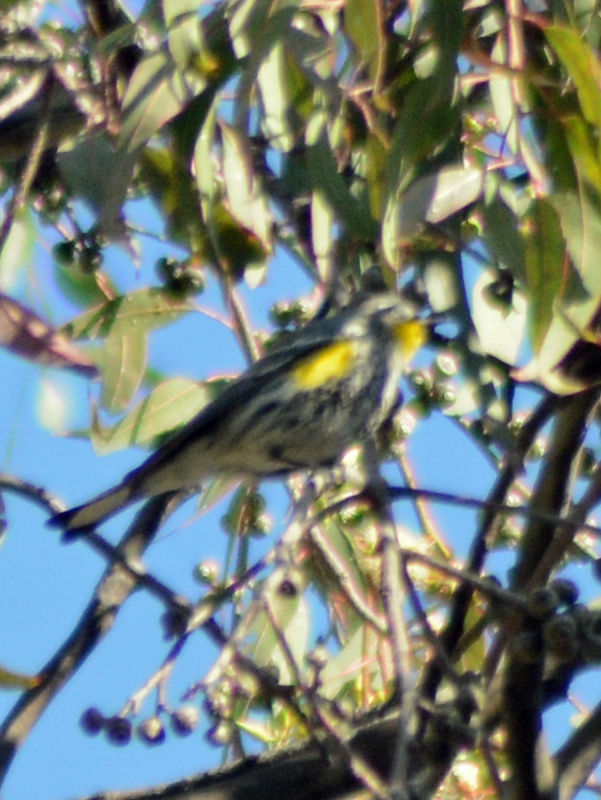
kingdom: Animalia
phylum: Chordata
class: Aves
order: Passeriformes
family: Parulidae
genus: Setophaga
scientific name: Setophaga auduboni
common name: Audubon's warbler
